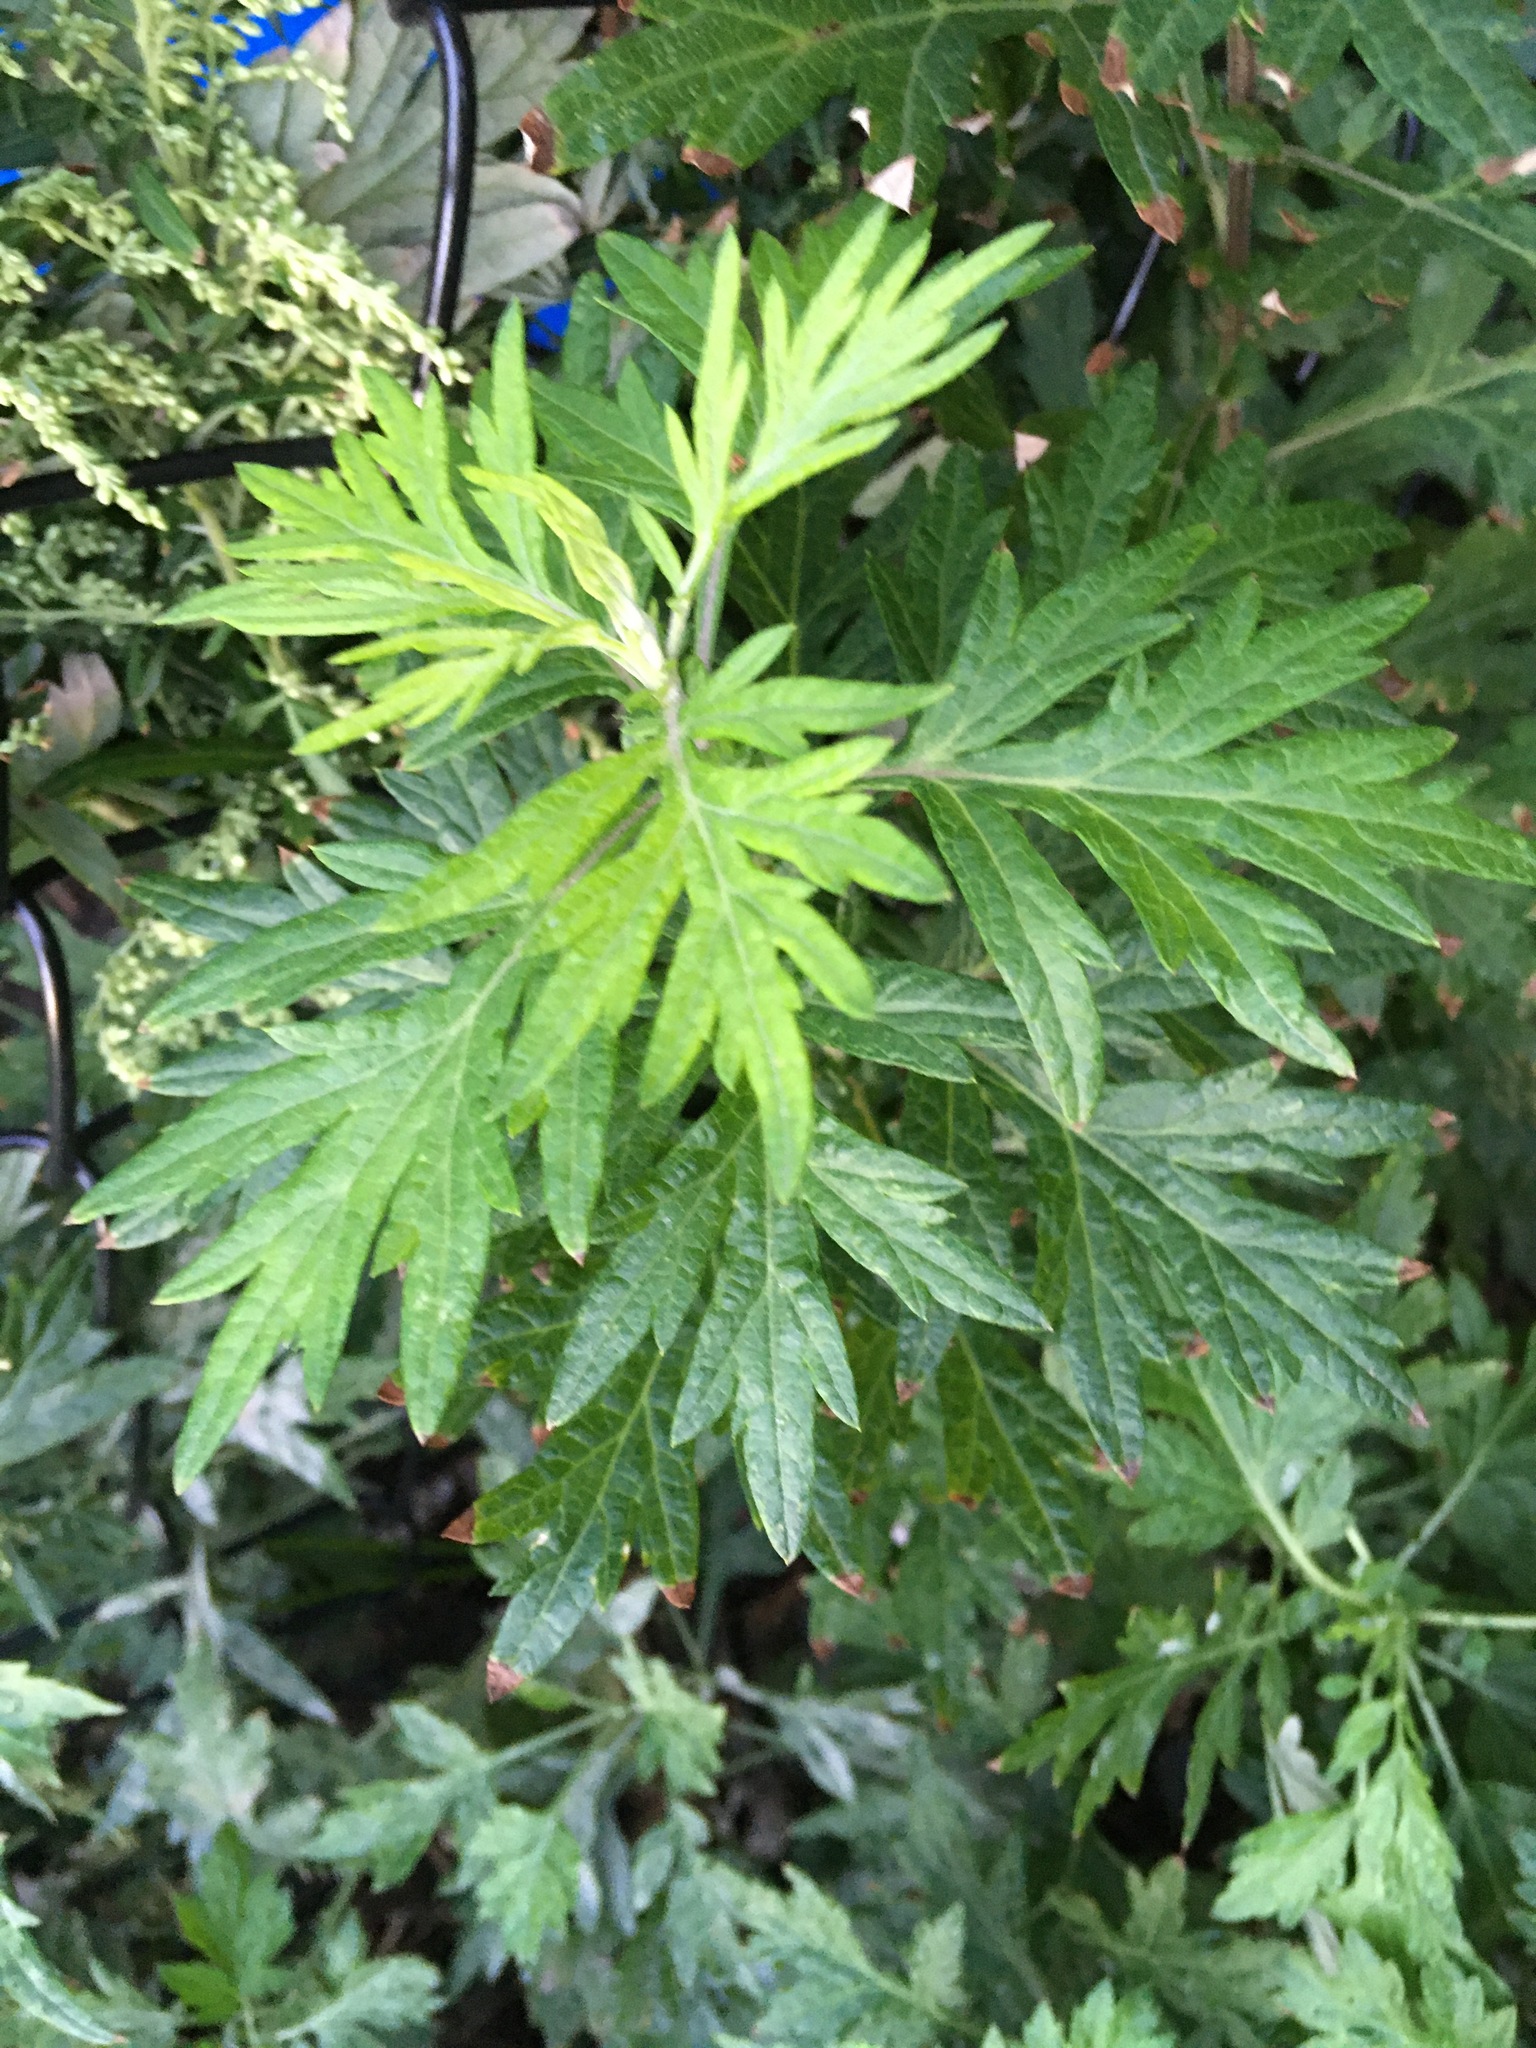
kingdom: Plantae
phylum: Tracheophyta
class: Magnoliopsida
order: Asterales
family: Asteraceae
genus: Artemisia
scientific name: Artemisia vulgaris
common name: Mugwort
